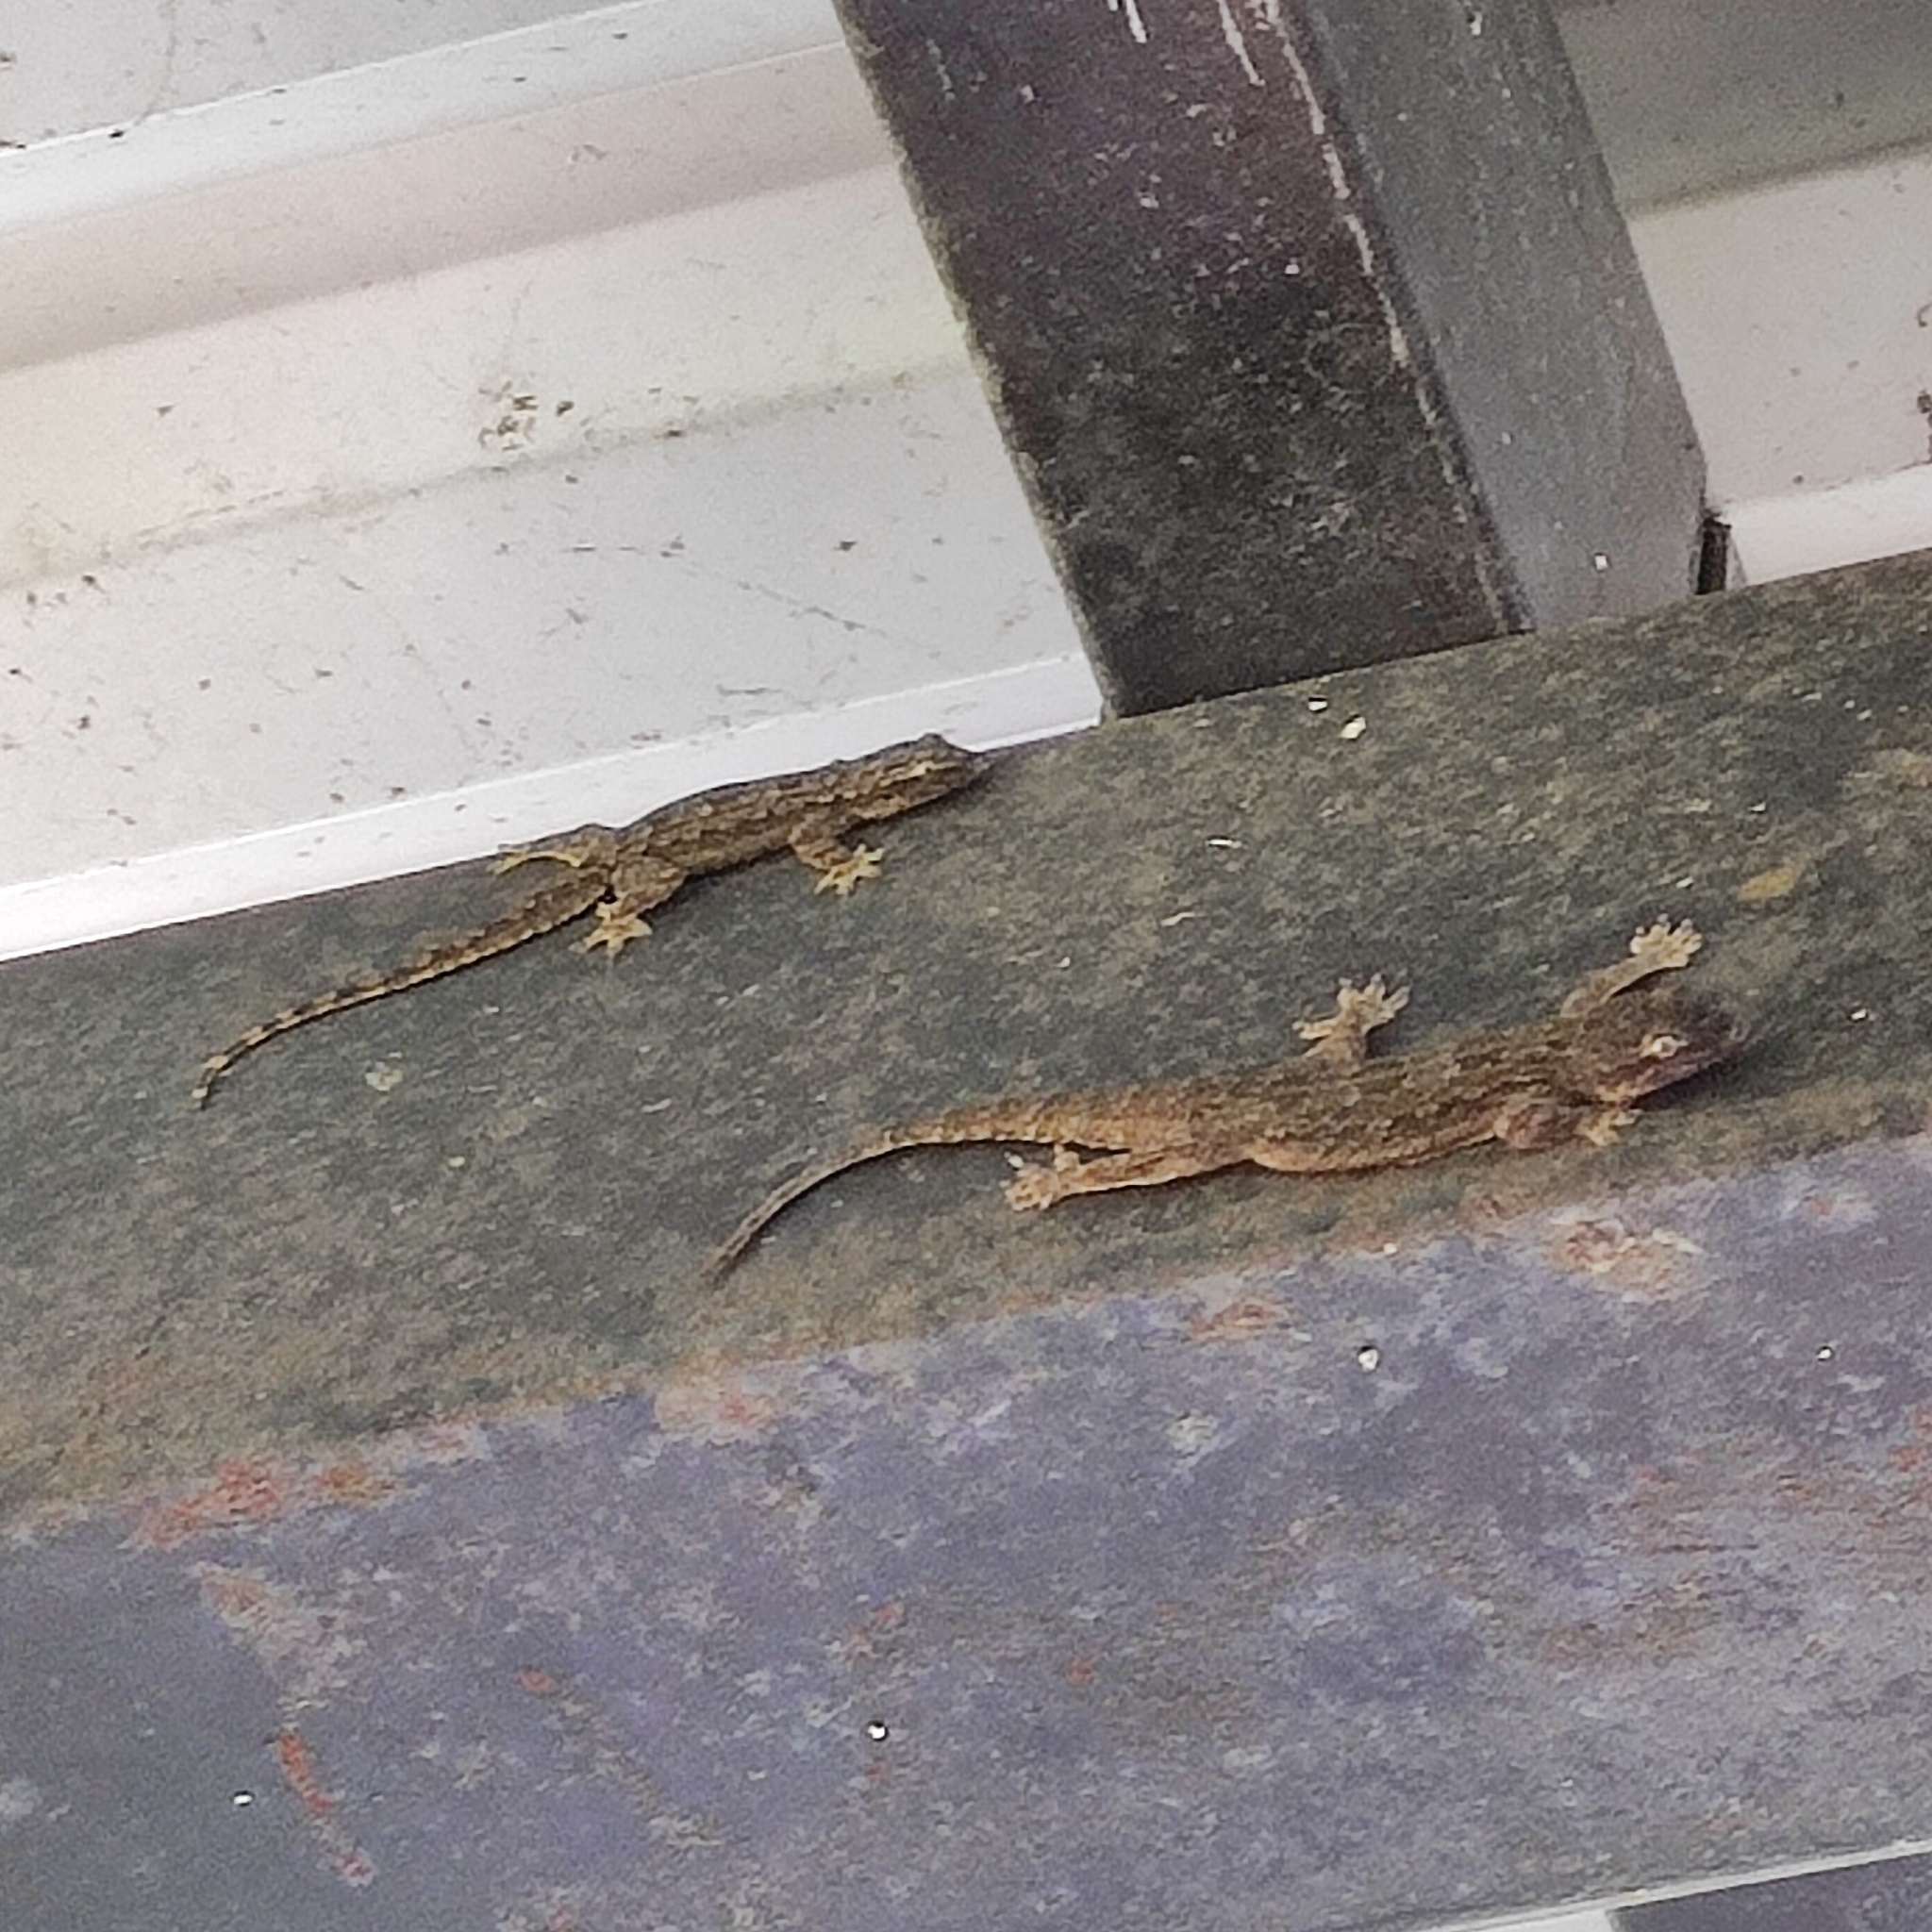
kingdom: Animalia
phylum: Chordata
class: Squamata
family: Gekkonidae
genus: Hemidactylus
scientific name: Hemidactylus platyurus
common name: Flat-tailed house gecko
